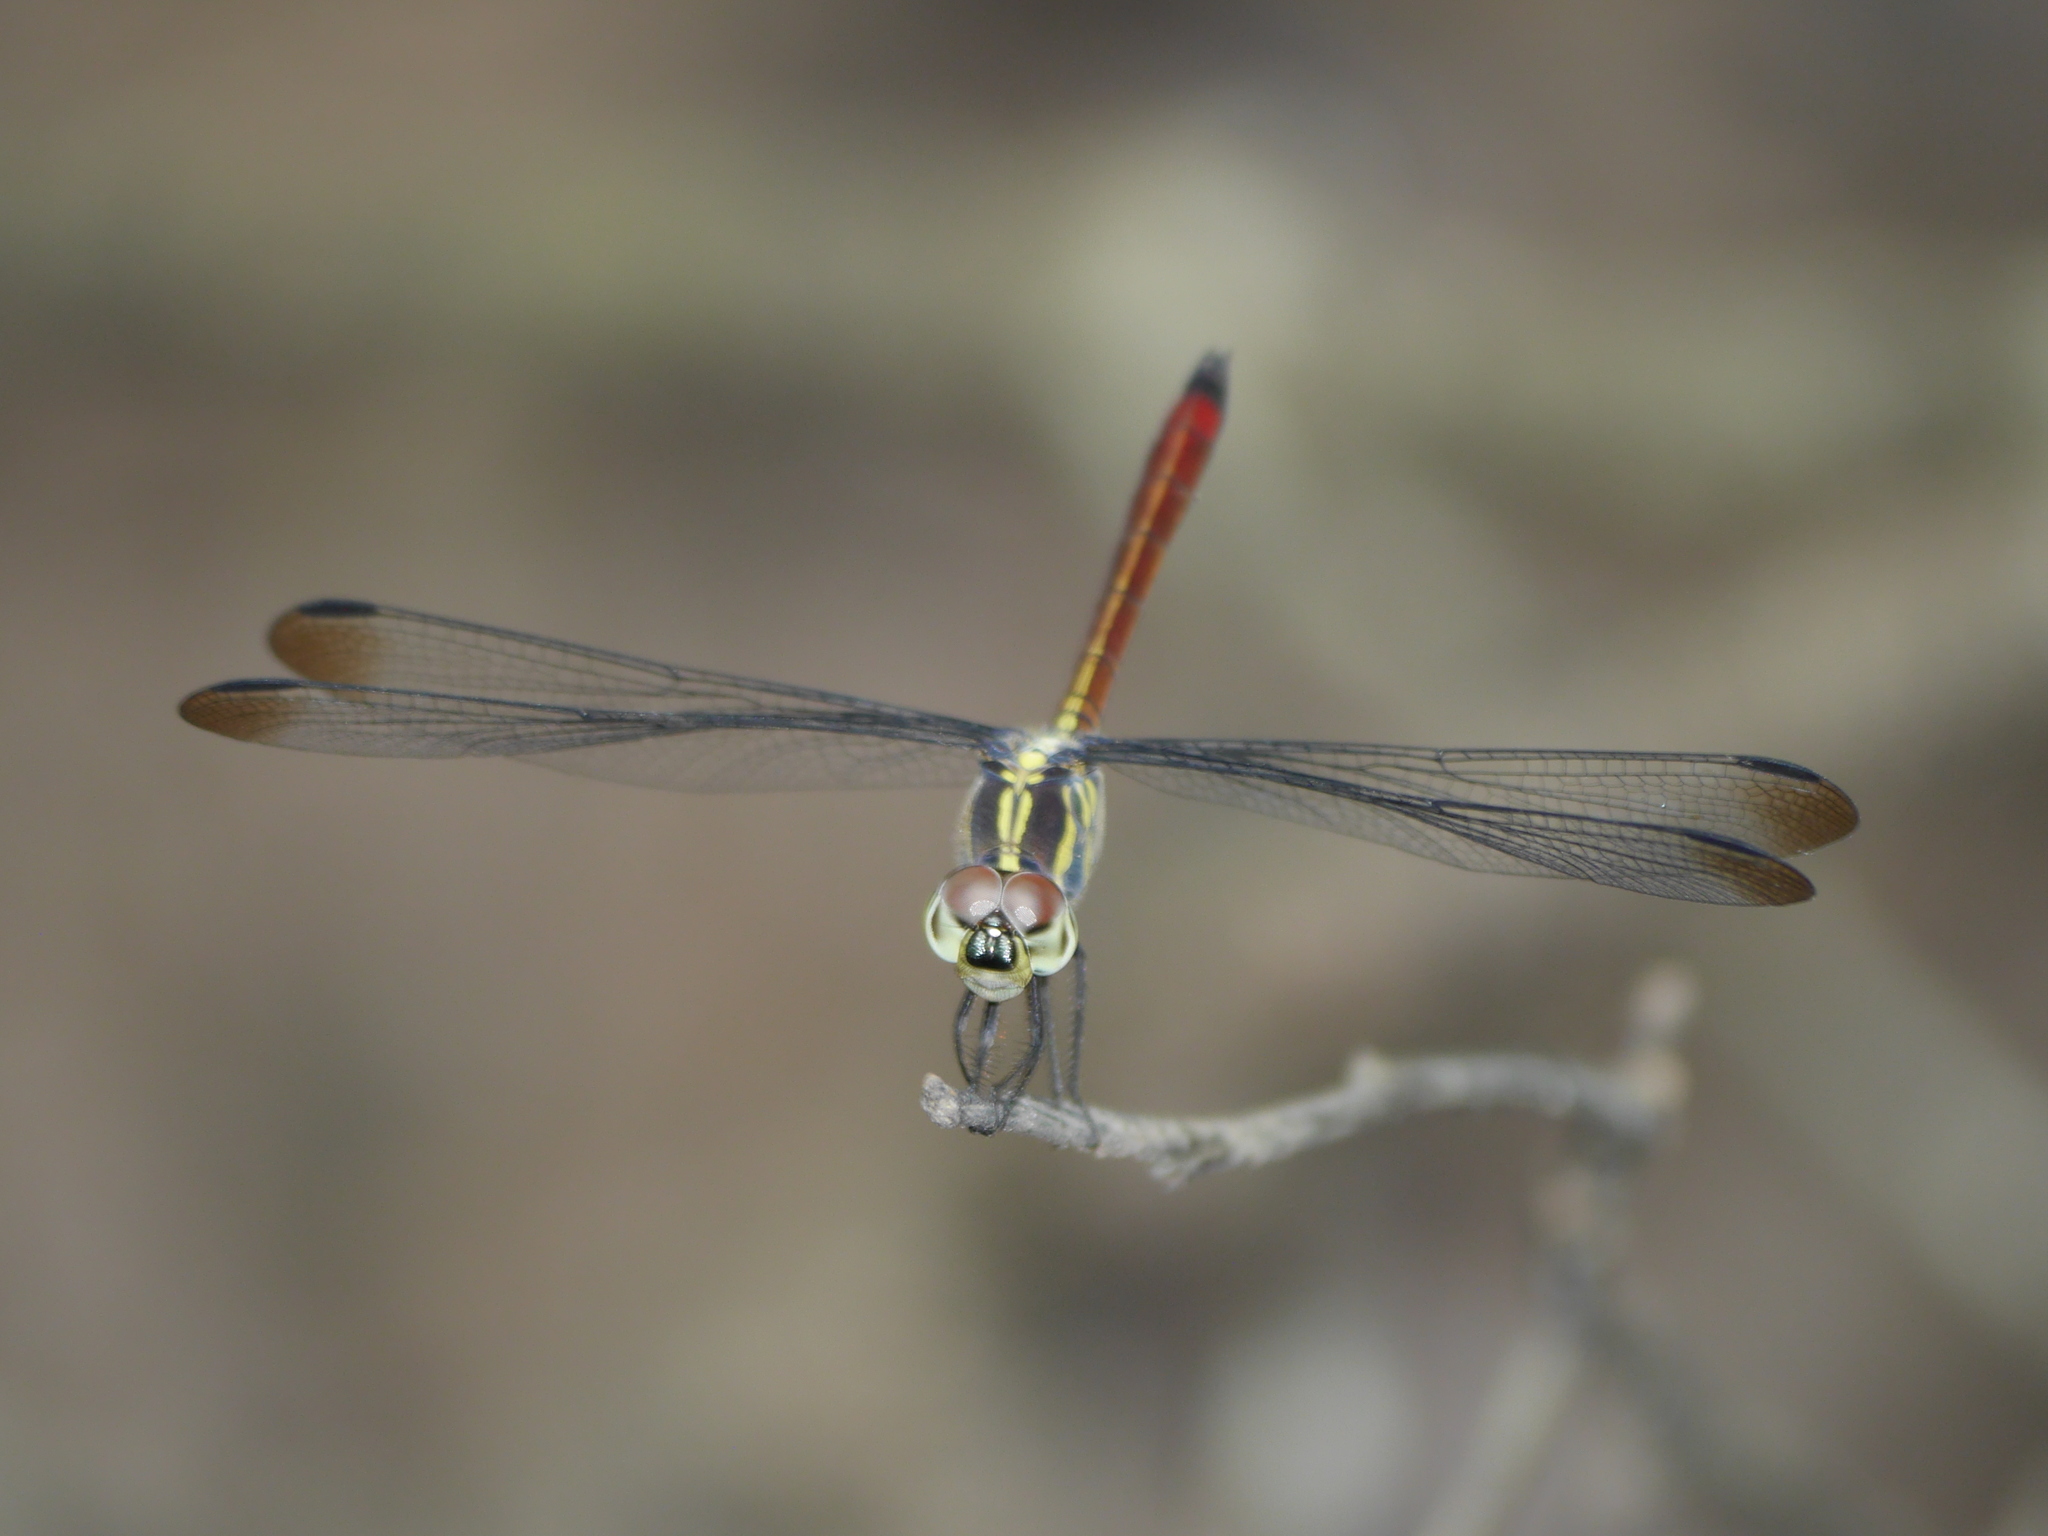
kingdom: Animalia
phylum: Arthropoda
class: Insecta
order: Odonata
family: Libellulidae
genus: Lathrecista
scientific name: Lathrecista asiatica
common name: Scarlet grenadier
